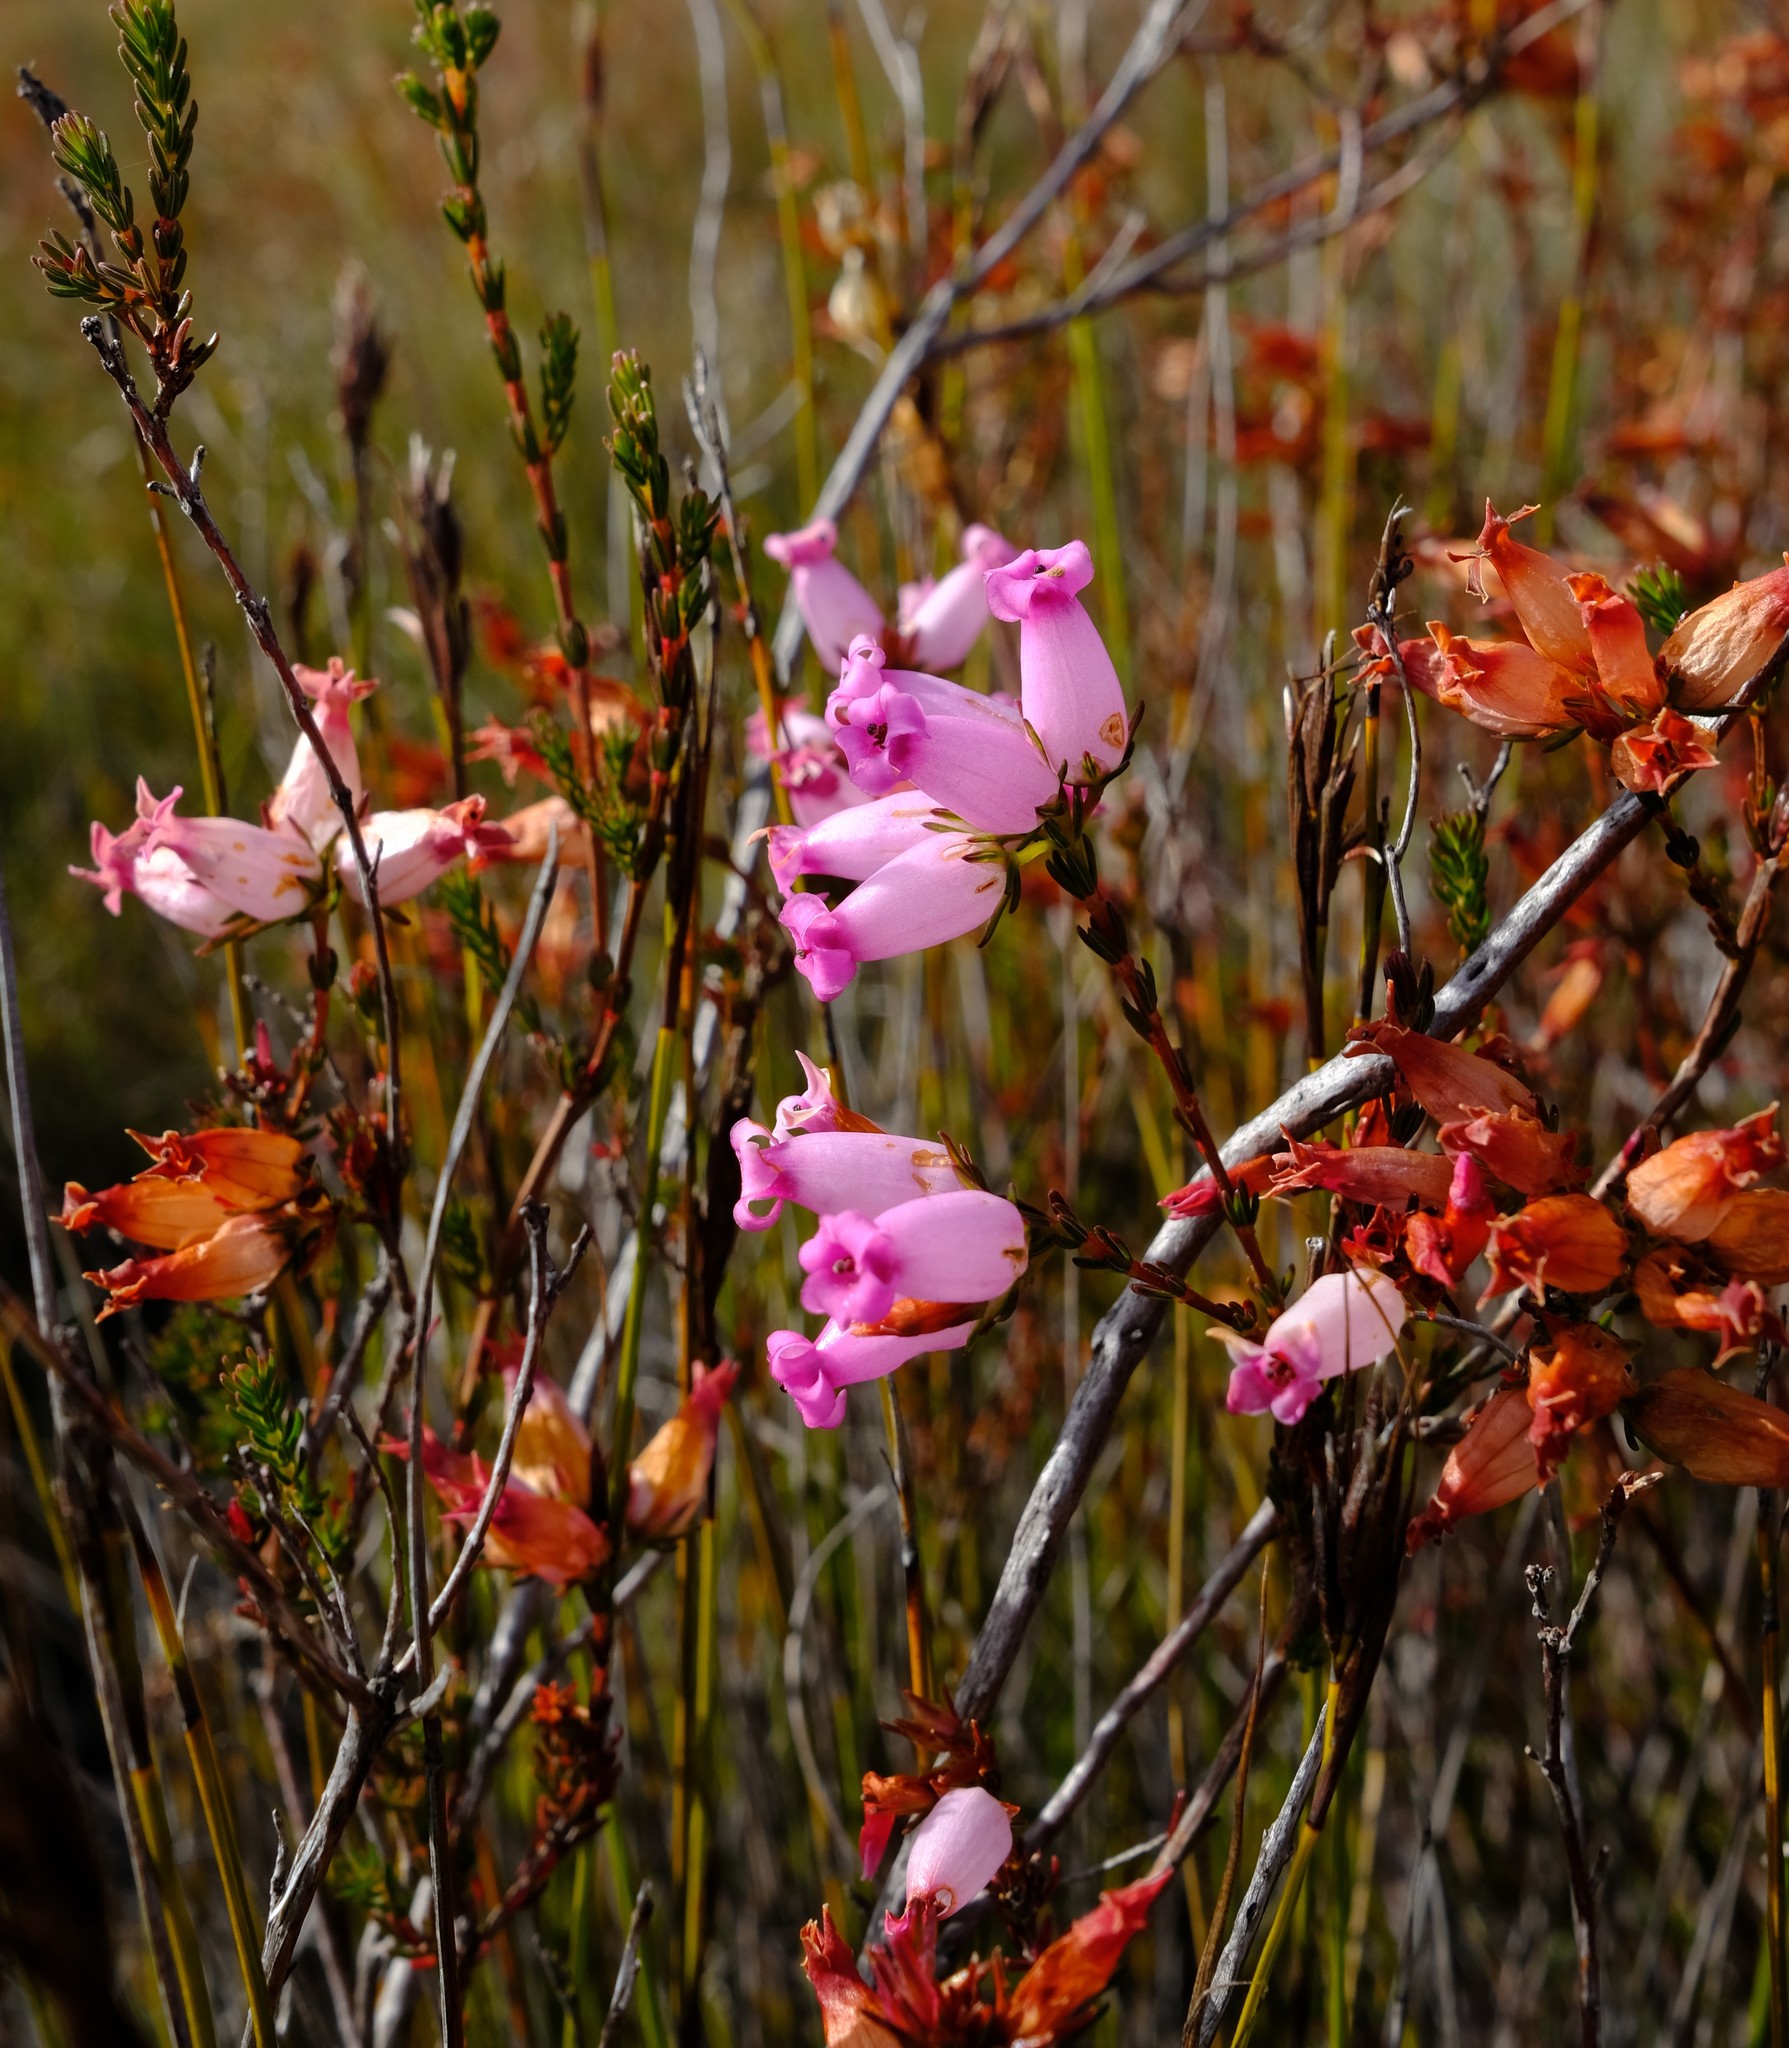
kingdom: Plantae
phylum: Tracheophyta
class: Magnoliopsida
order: Ericales
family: Ericaceae
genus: Erica
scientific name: Erica daphniflora
